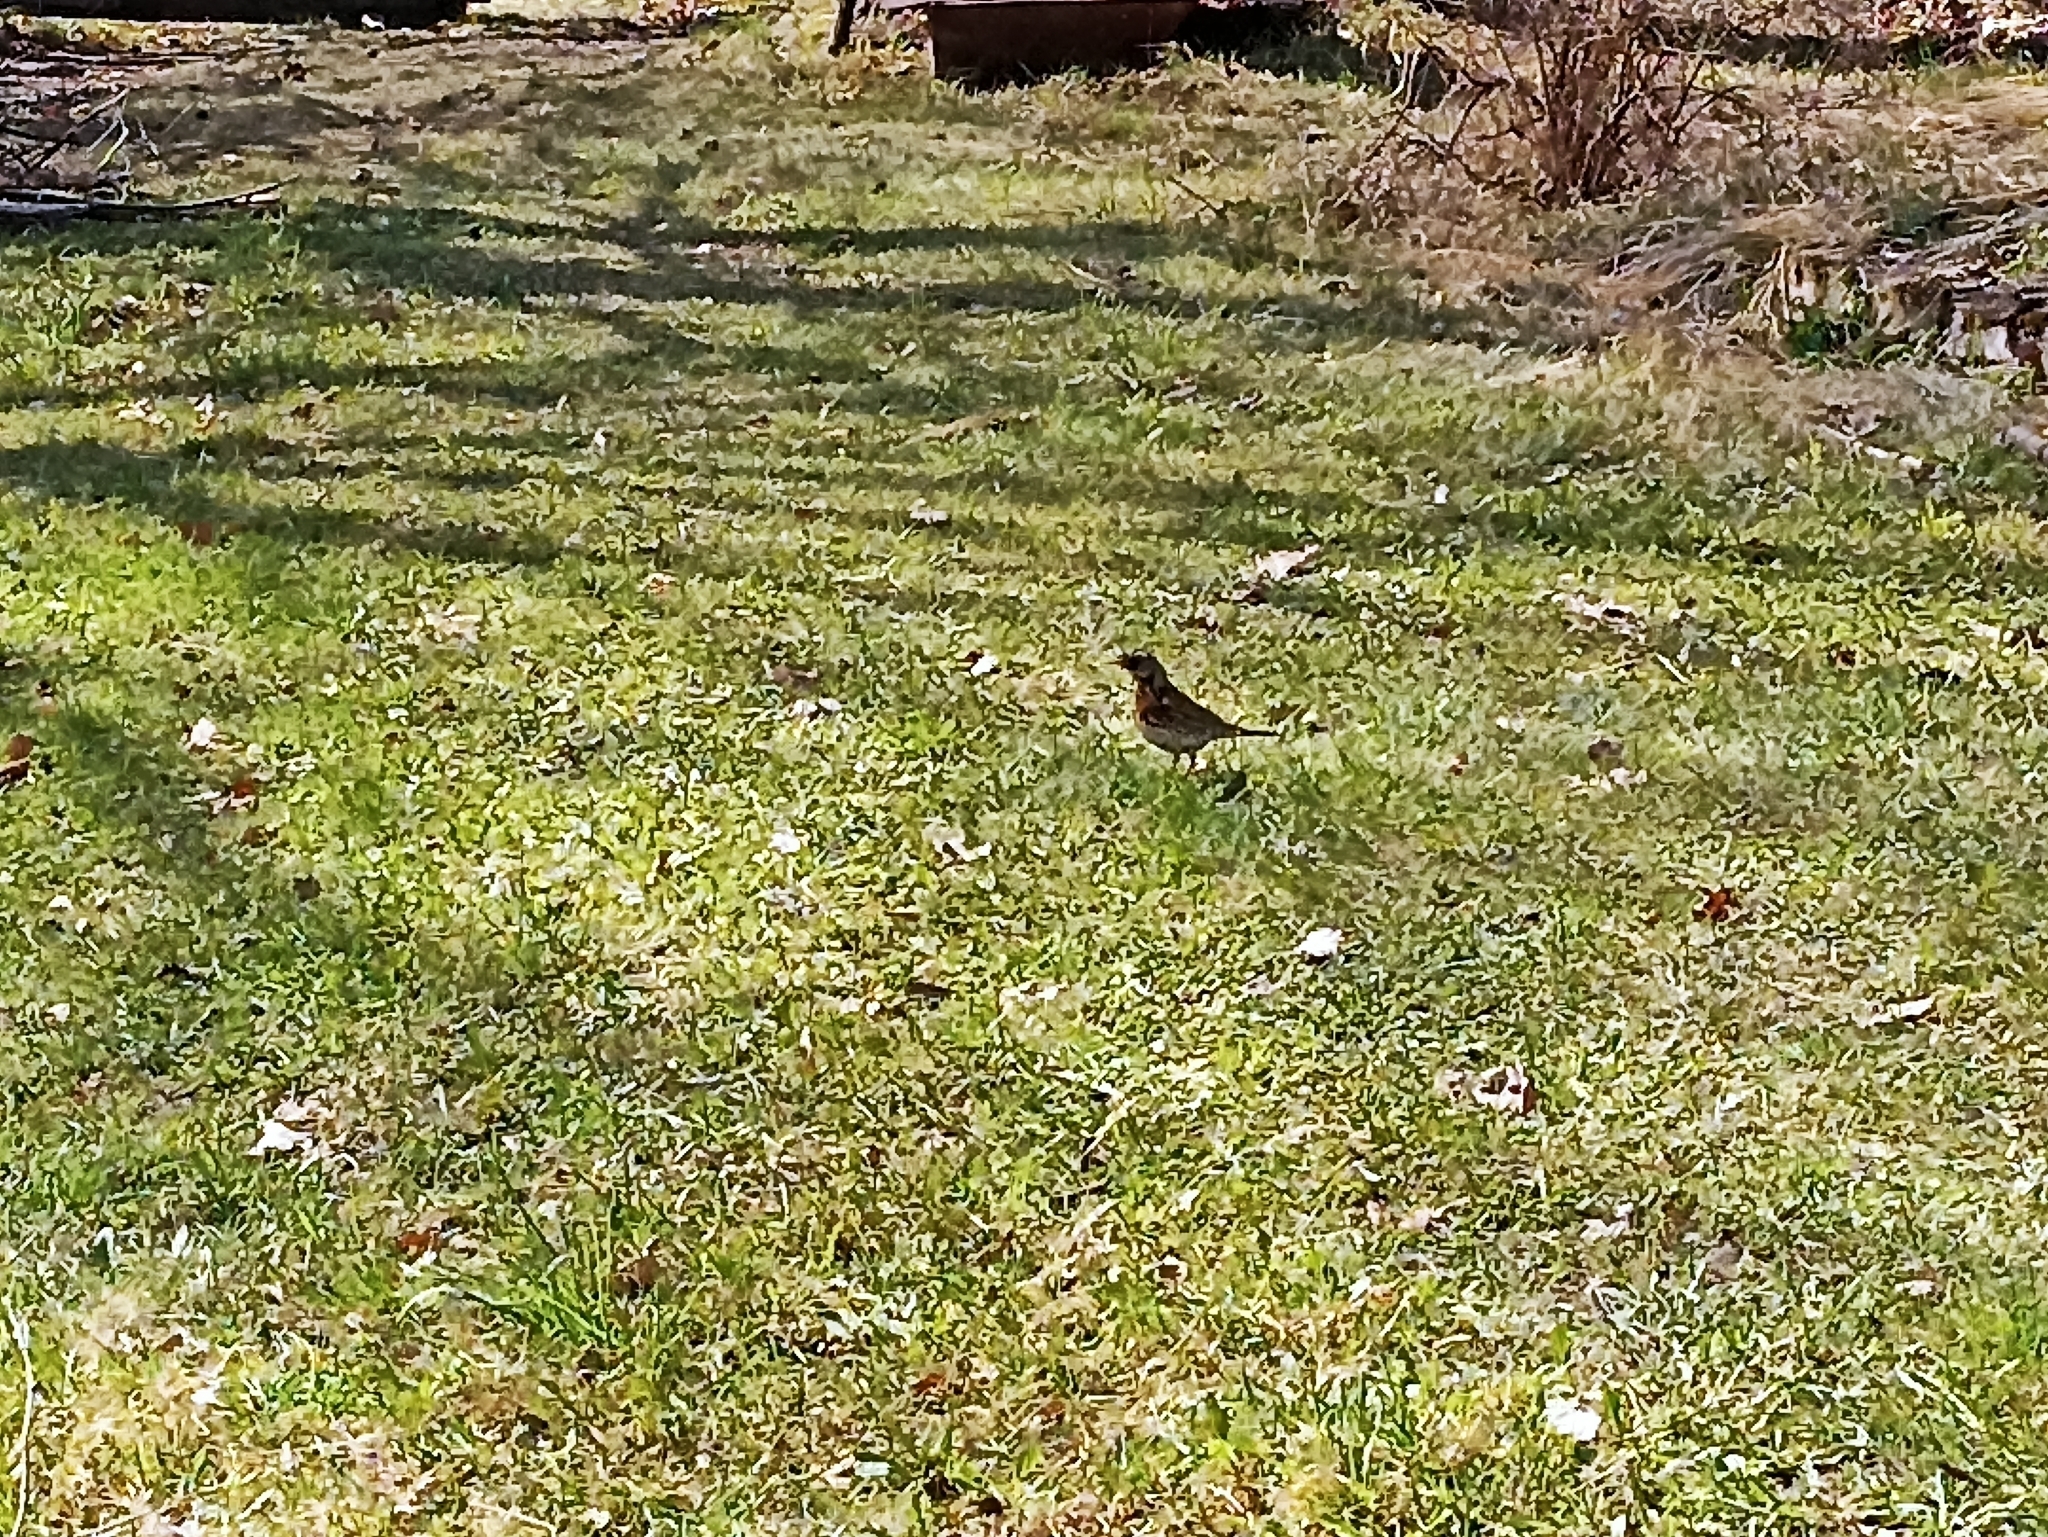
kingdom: Animalia
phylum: Chordata
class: Aves
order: Passeriformes
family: Turdidae
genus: Turdus
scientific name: Turdus pilaris
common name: Fieldfare
